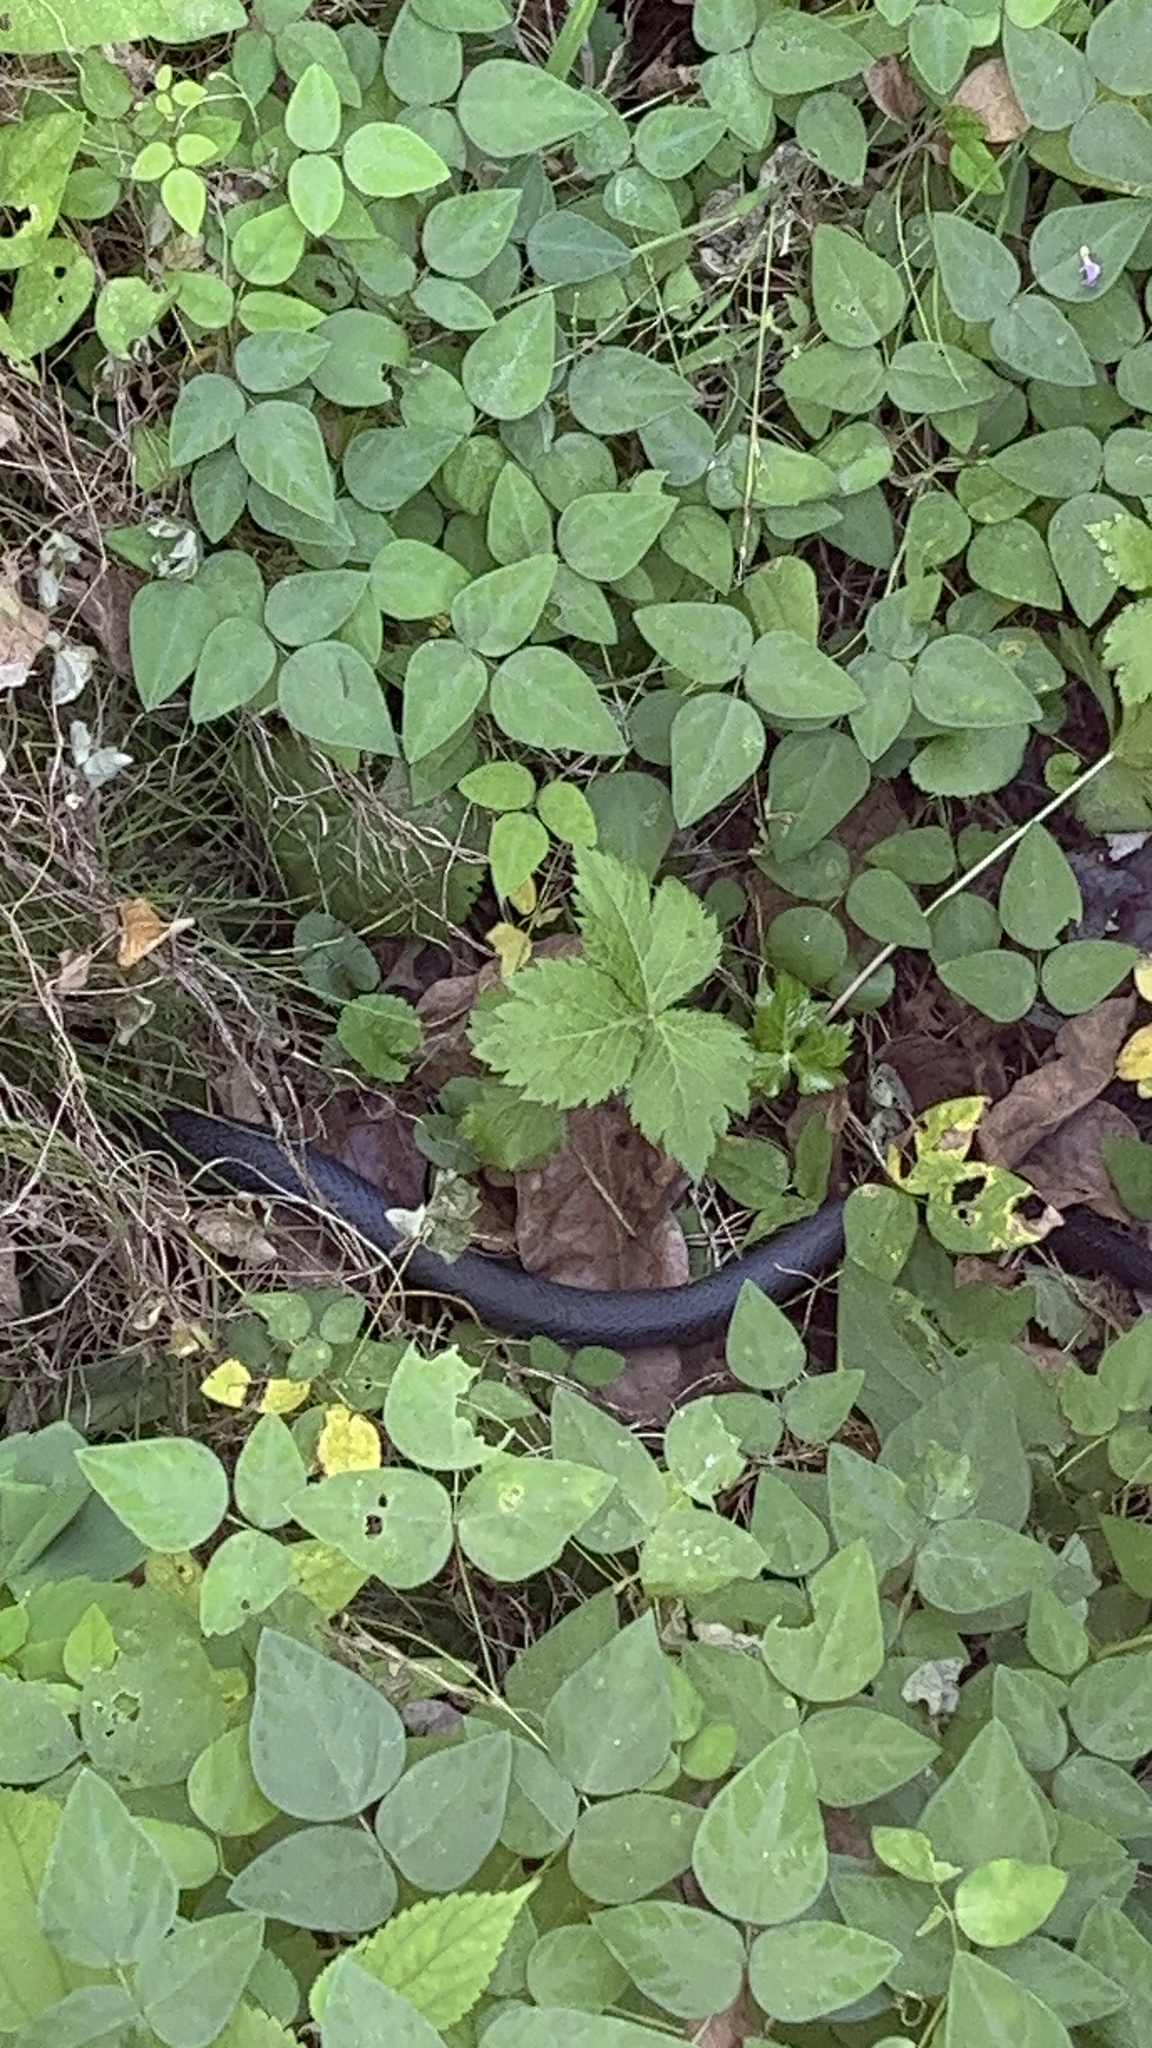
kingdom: Animalia
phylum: Chordata
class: Squamata
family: Colubridae
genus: Pantherophis
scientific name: Pantherophis
